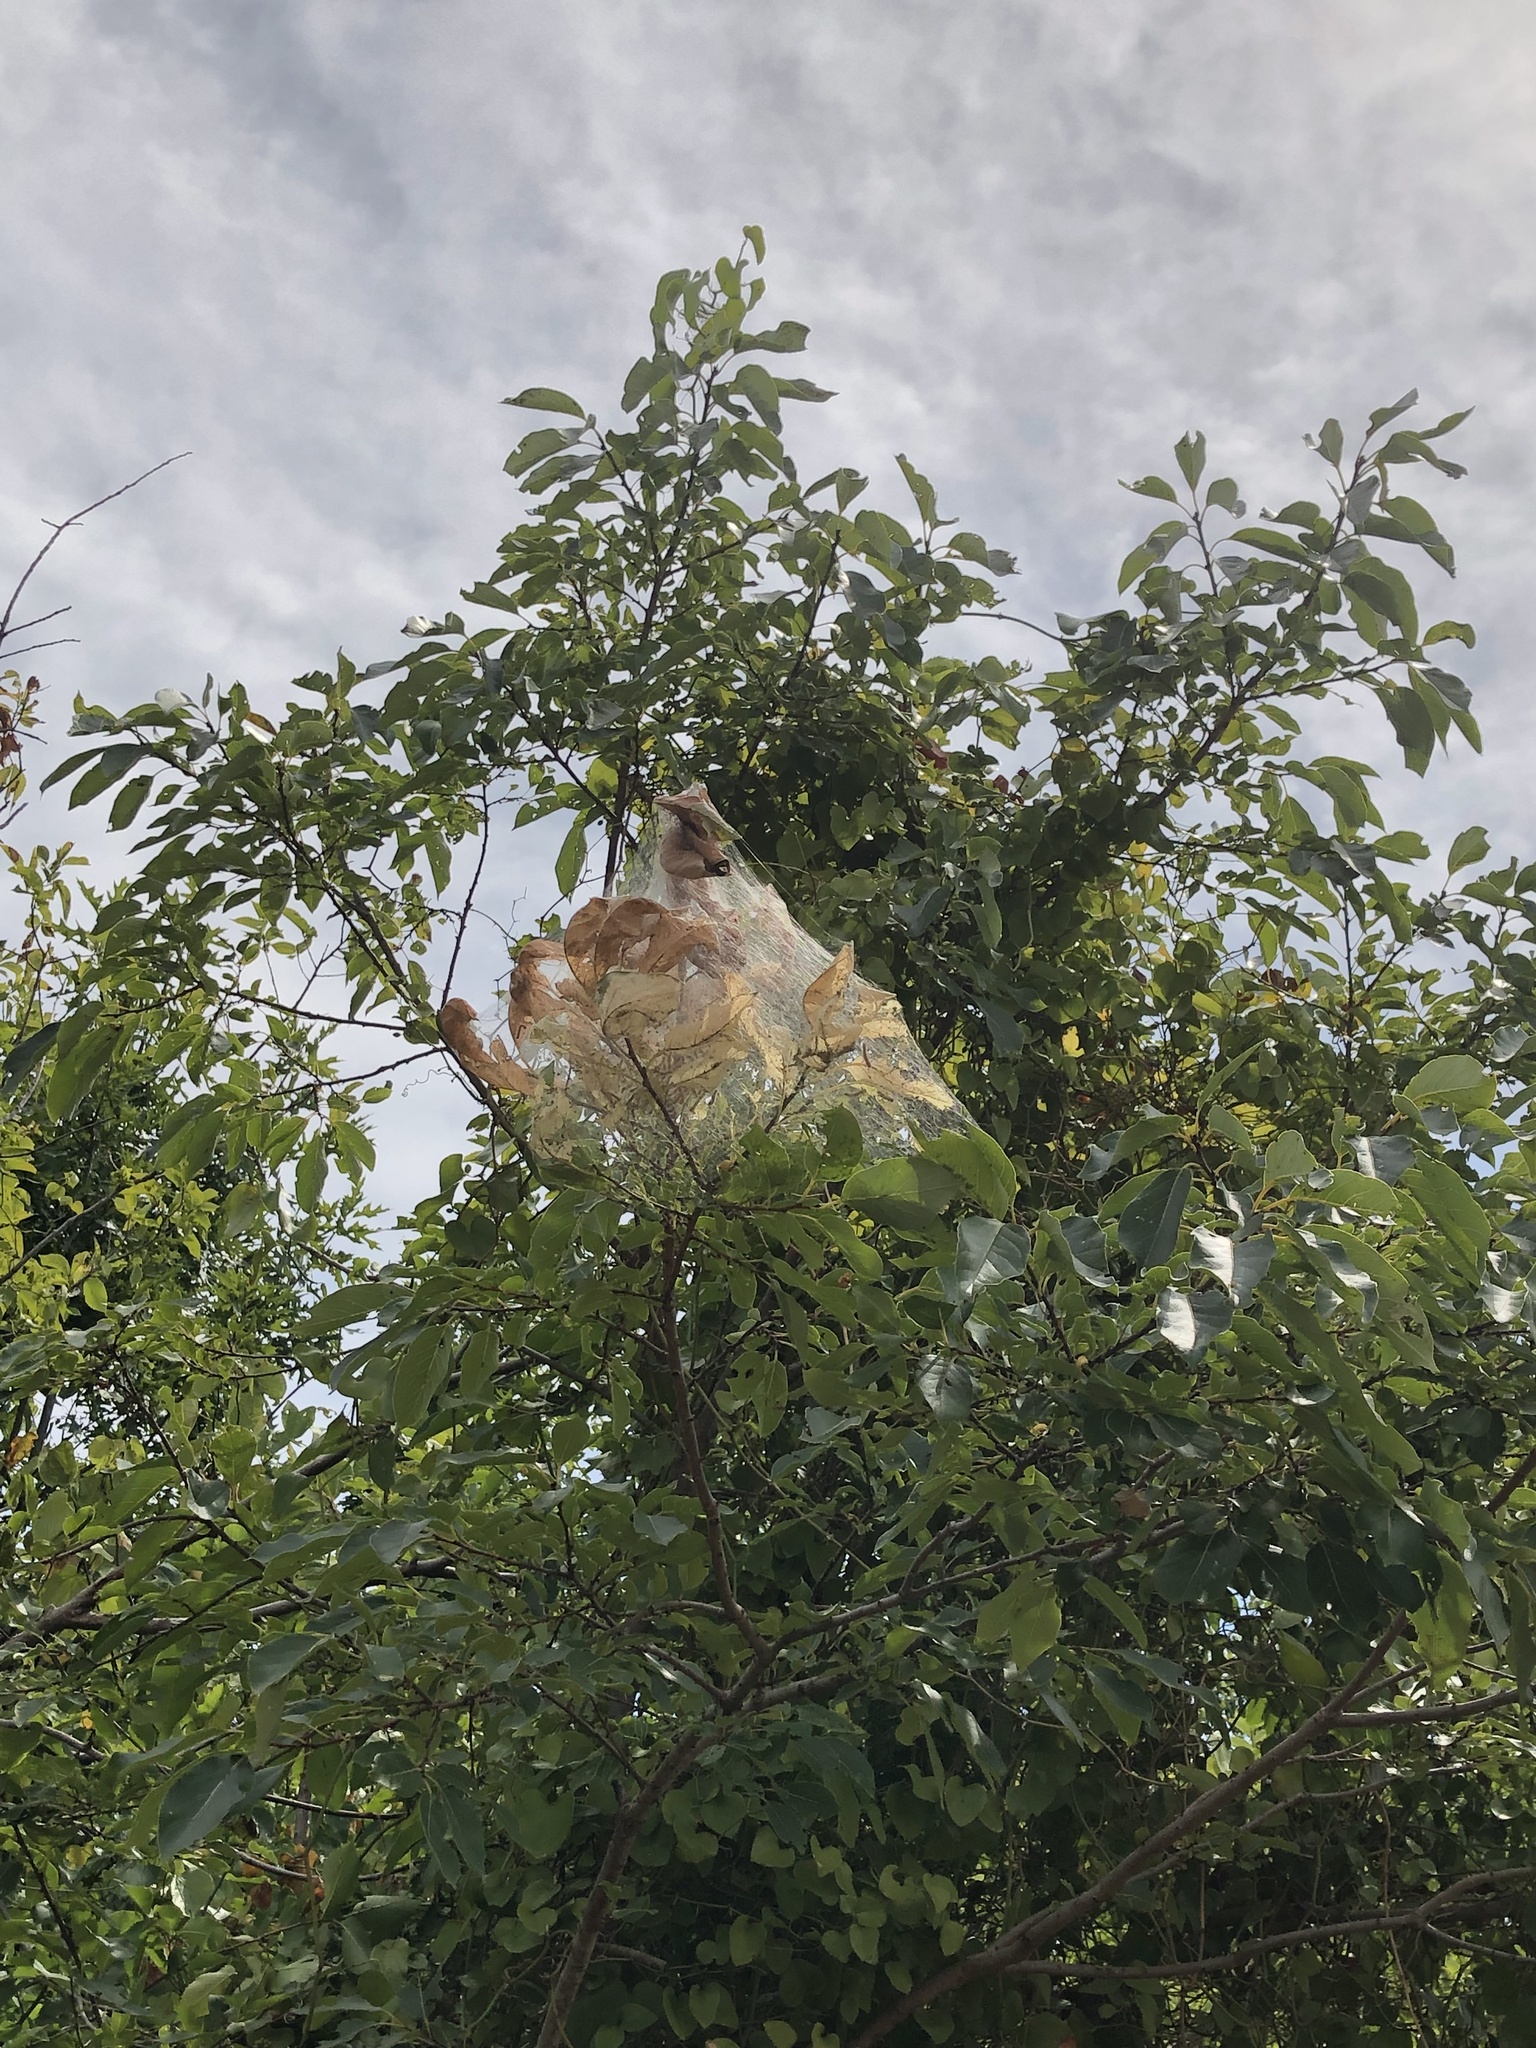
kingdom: Animalia
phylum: Arthropoda
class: Insecta
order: Lepidoptera
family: Erebidae
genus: Hyphantria
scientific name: Hyphantria cunea
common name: American white moth
